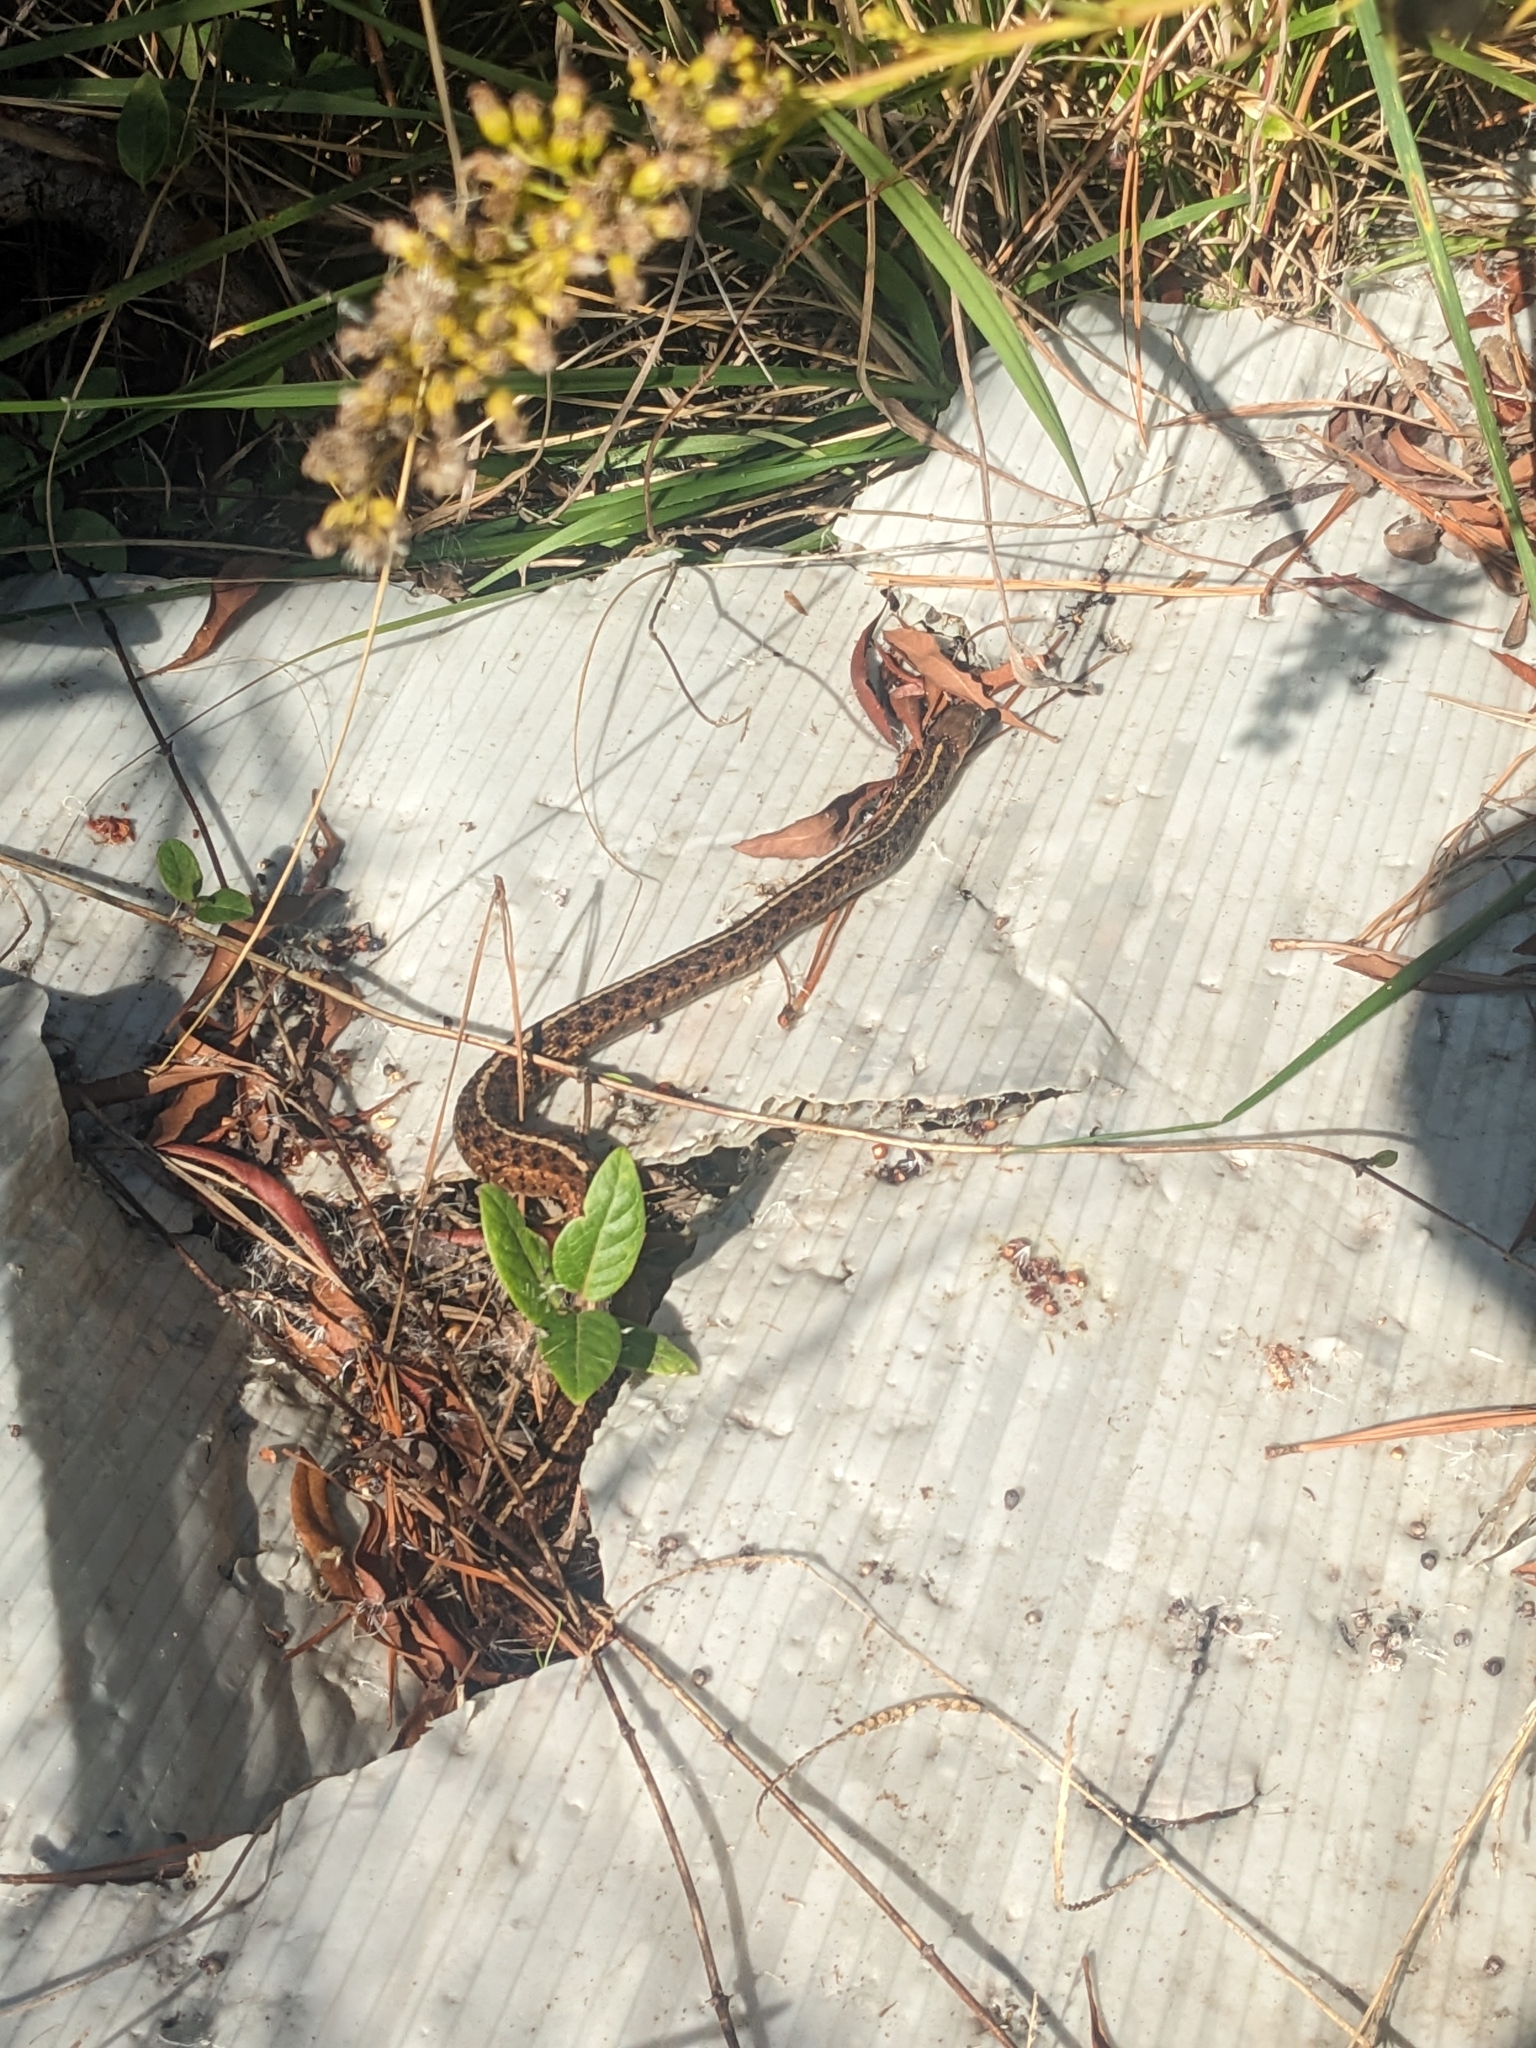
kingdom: Animalia
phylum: Chordata
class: Squamata
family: Colubridae
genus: Thamnophis
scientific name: Thamnophis sirtalis
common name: Common garter snake
